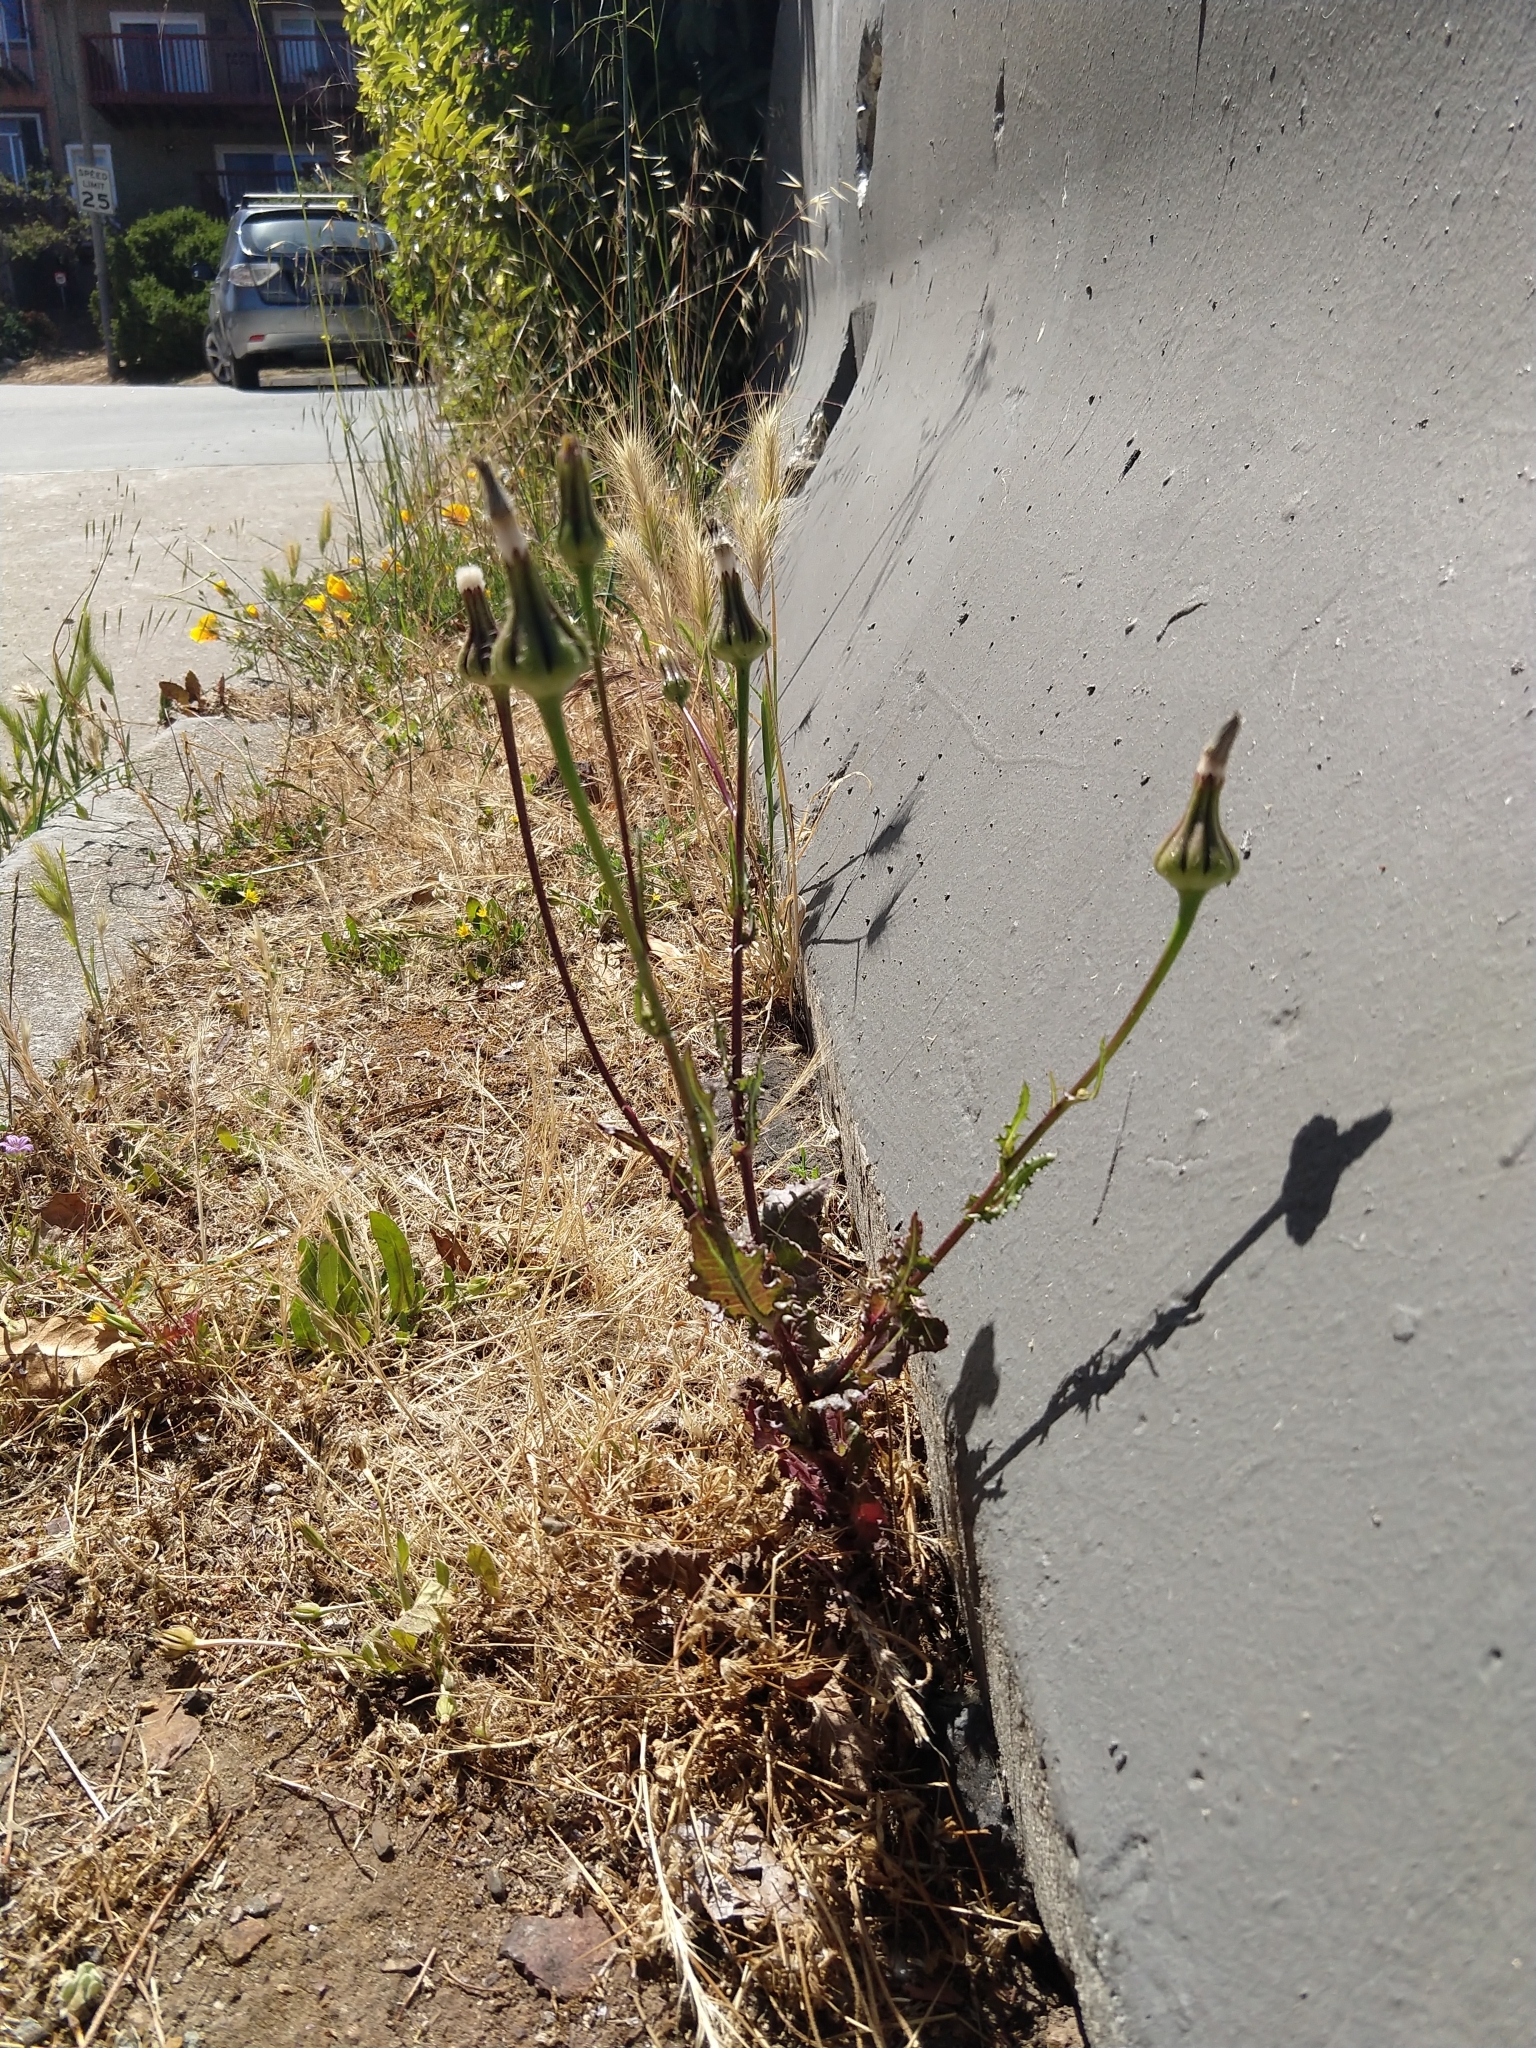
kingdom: Plantae
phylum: Tracheophyta
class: Magnoliopsida
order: Asterales
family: Asteraceae
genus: Urospermum
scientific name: Urospermum picroides
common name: False hawkbit
